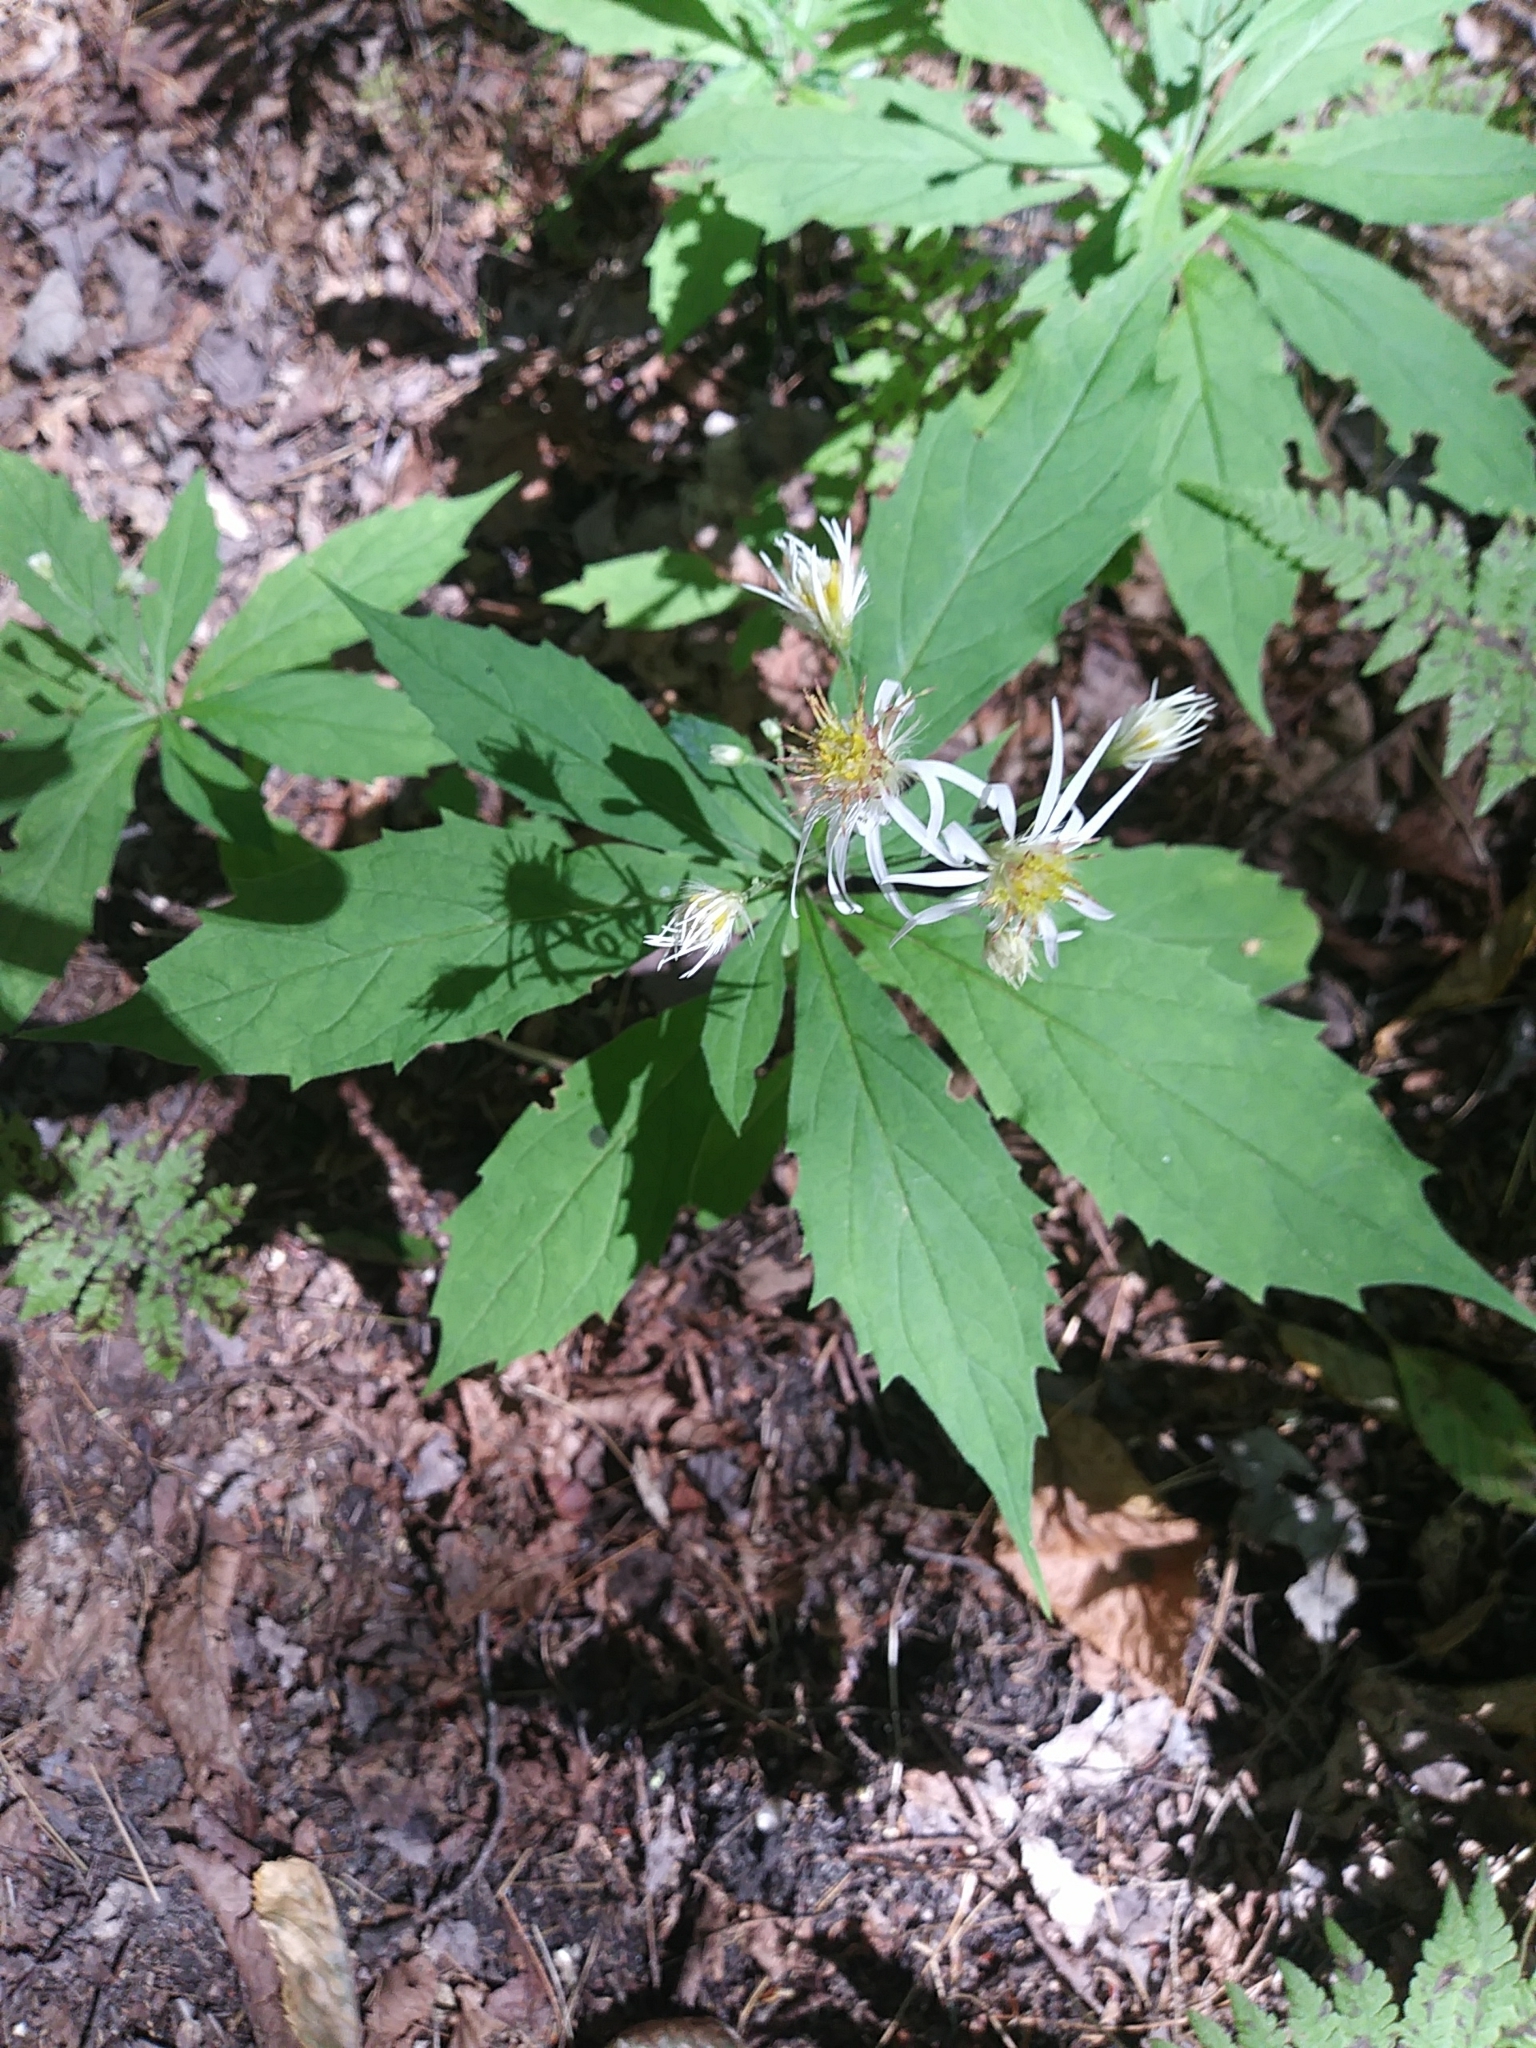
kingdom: Plantae
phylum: Tracheophyta
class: Magnoliopsida
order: Asterales
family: Asteraceae
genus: Oclemena
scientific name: Oclemena acuminata
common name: Mountain aster
